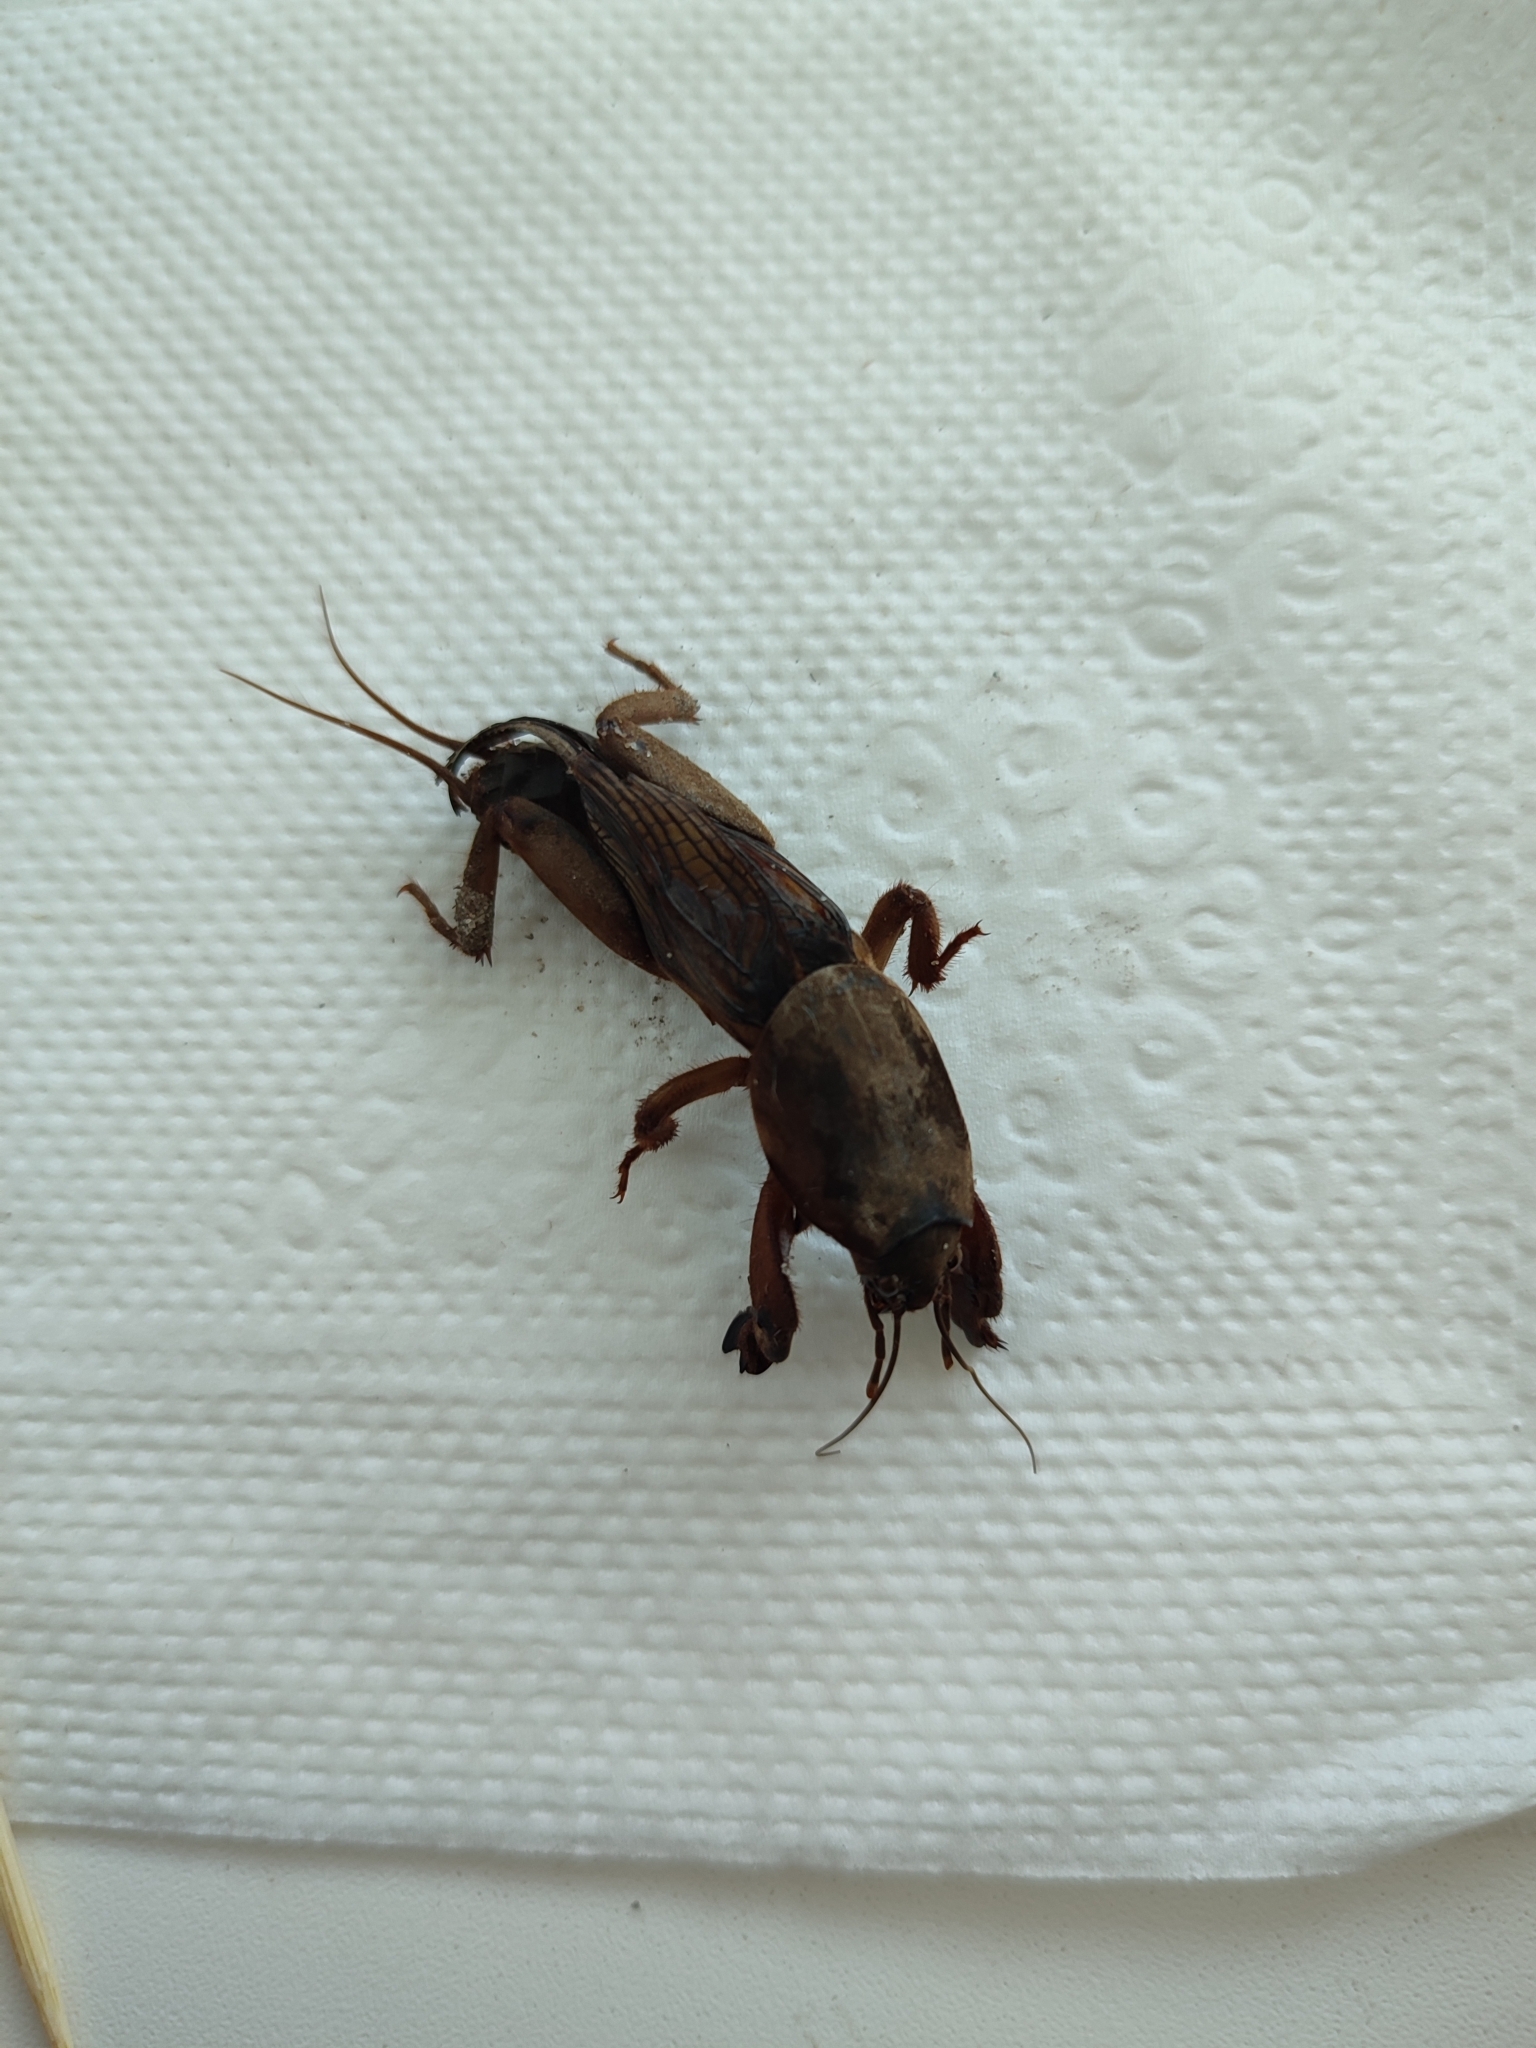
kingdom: Animalia
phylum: Arthropoda
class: Insecta
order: Orthoptera
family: Gryllotalpidae
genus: Gryllotalpa
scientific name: Gryllotalpa gryllotalpa
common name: European mole cricket
